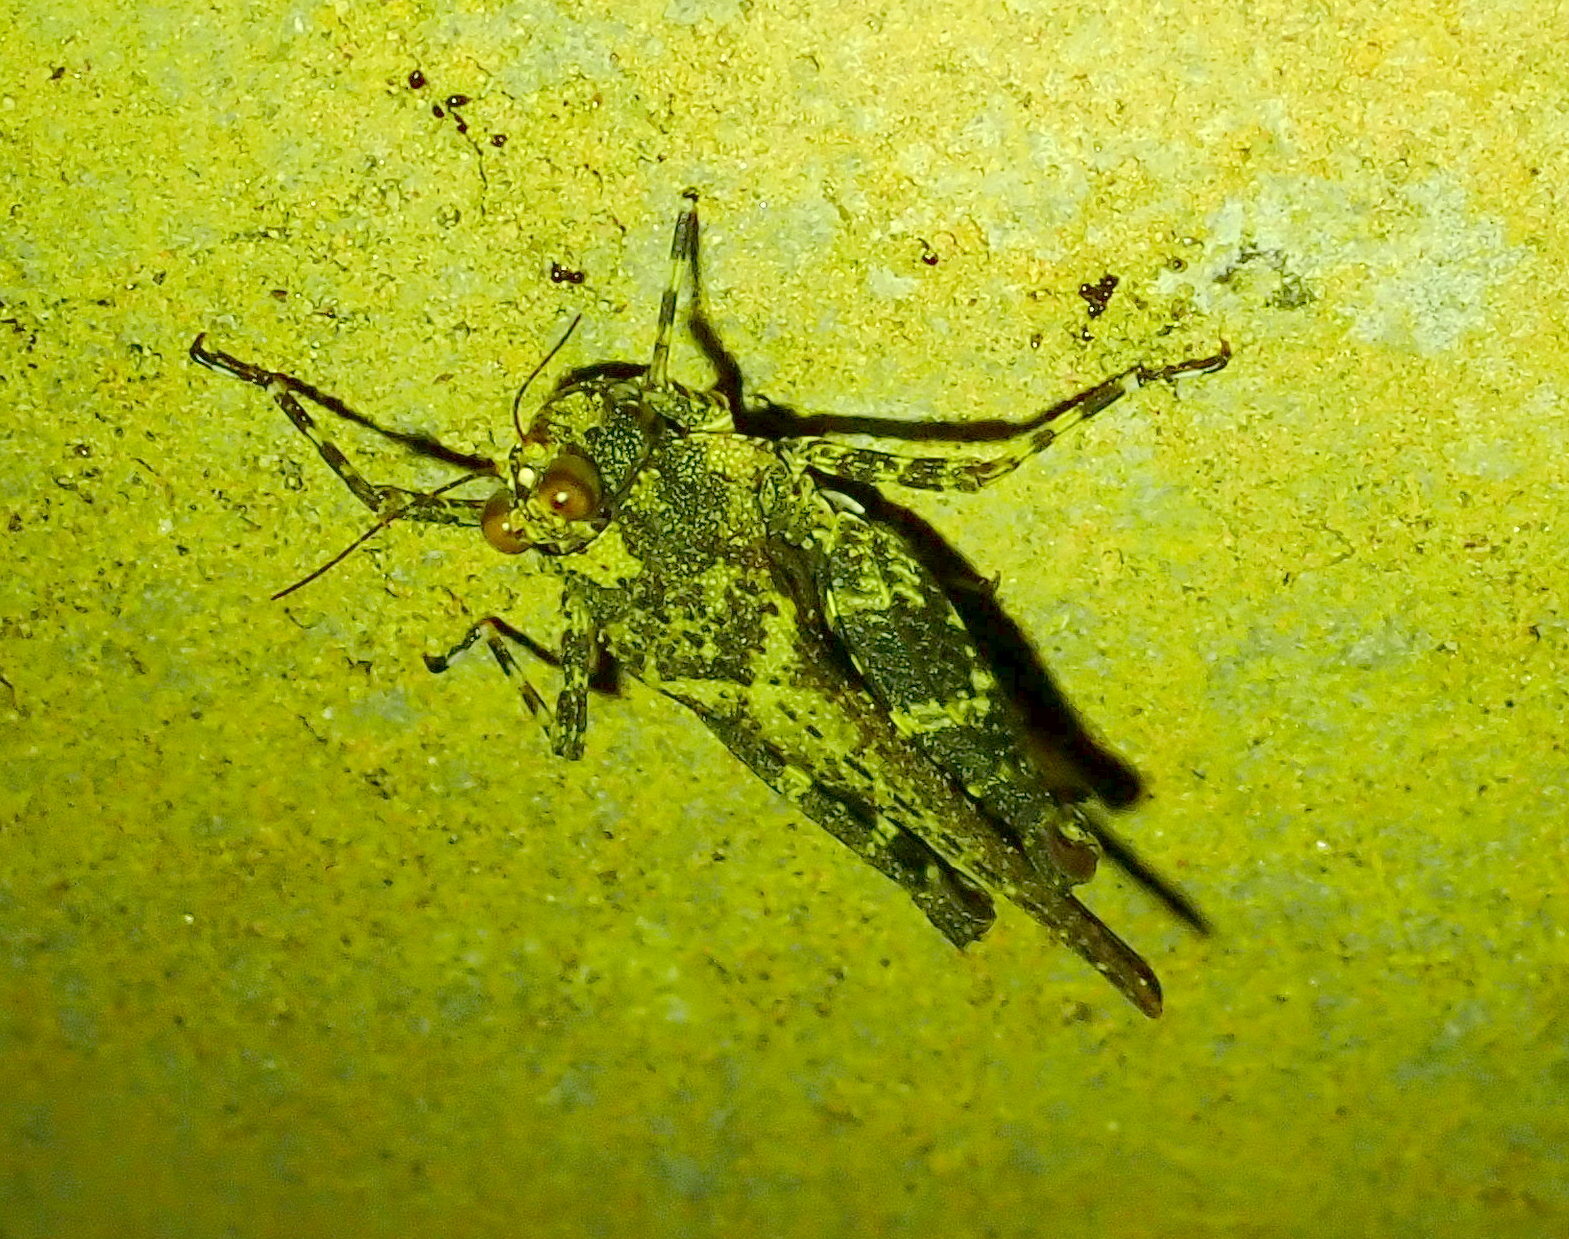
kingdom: Animalia
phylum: Arthropoda
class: Insecta
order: Orthoptera
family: Tetrigidae
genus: Eucriotettix
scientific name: Eucriotettix thienemanni
